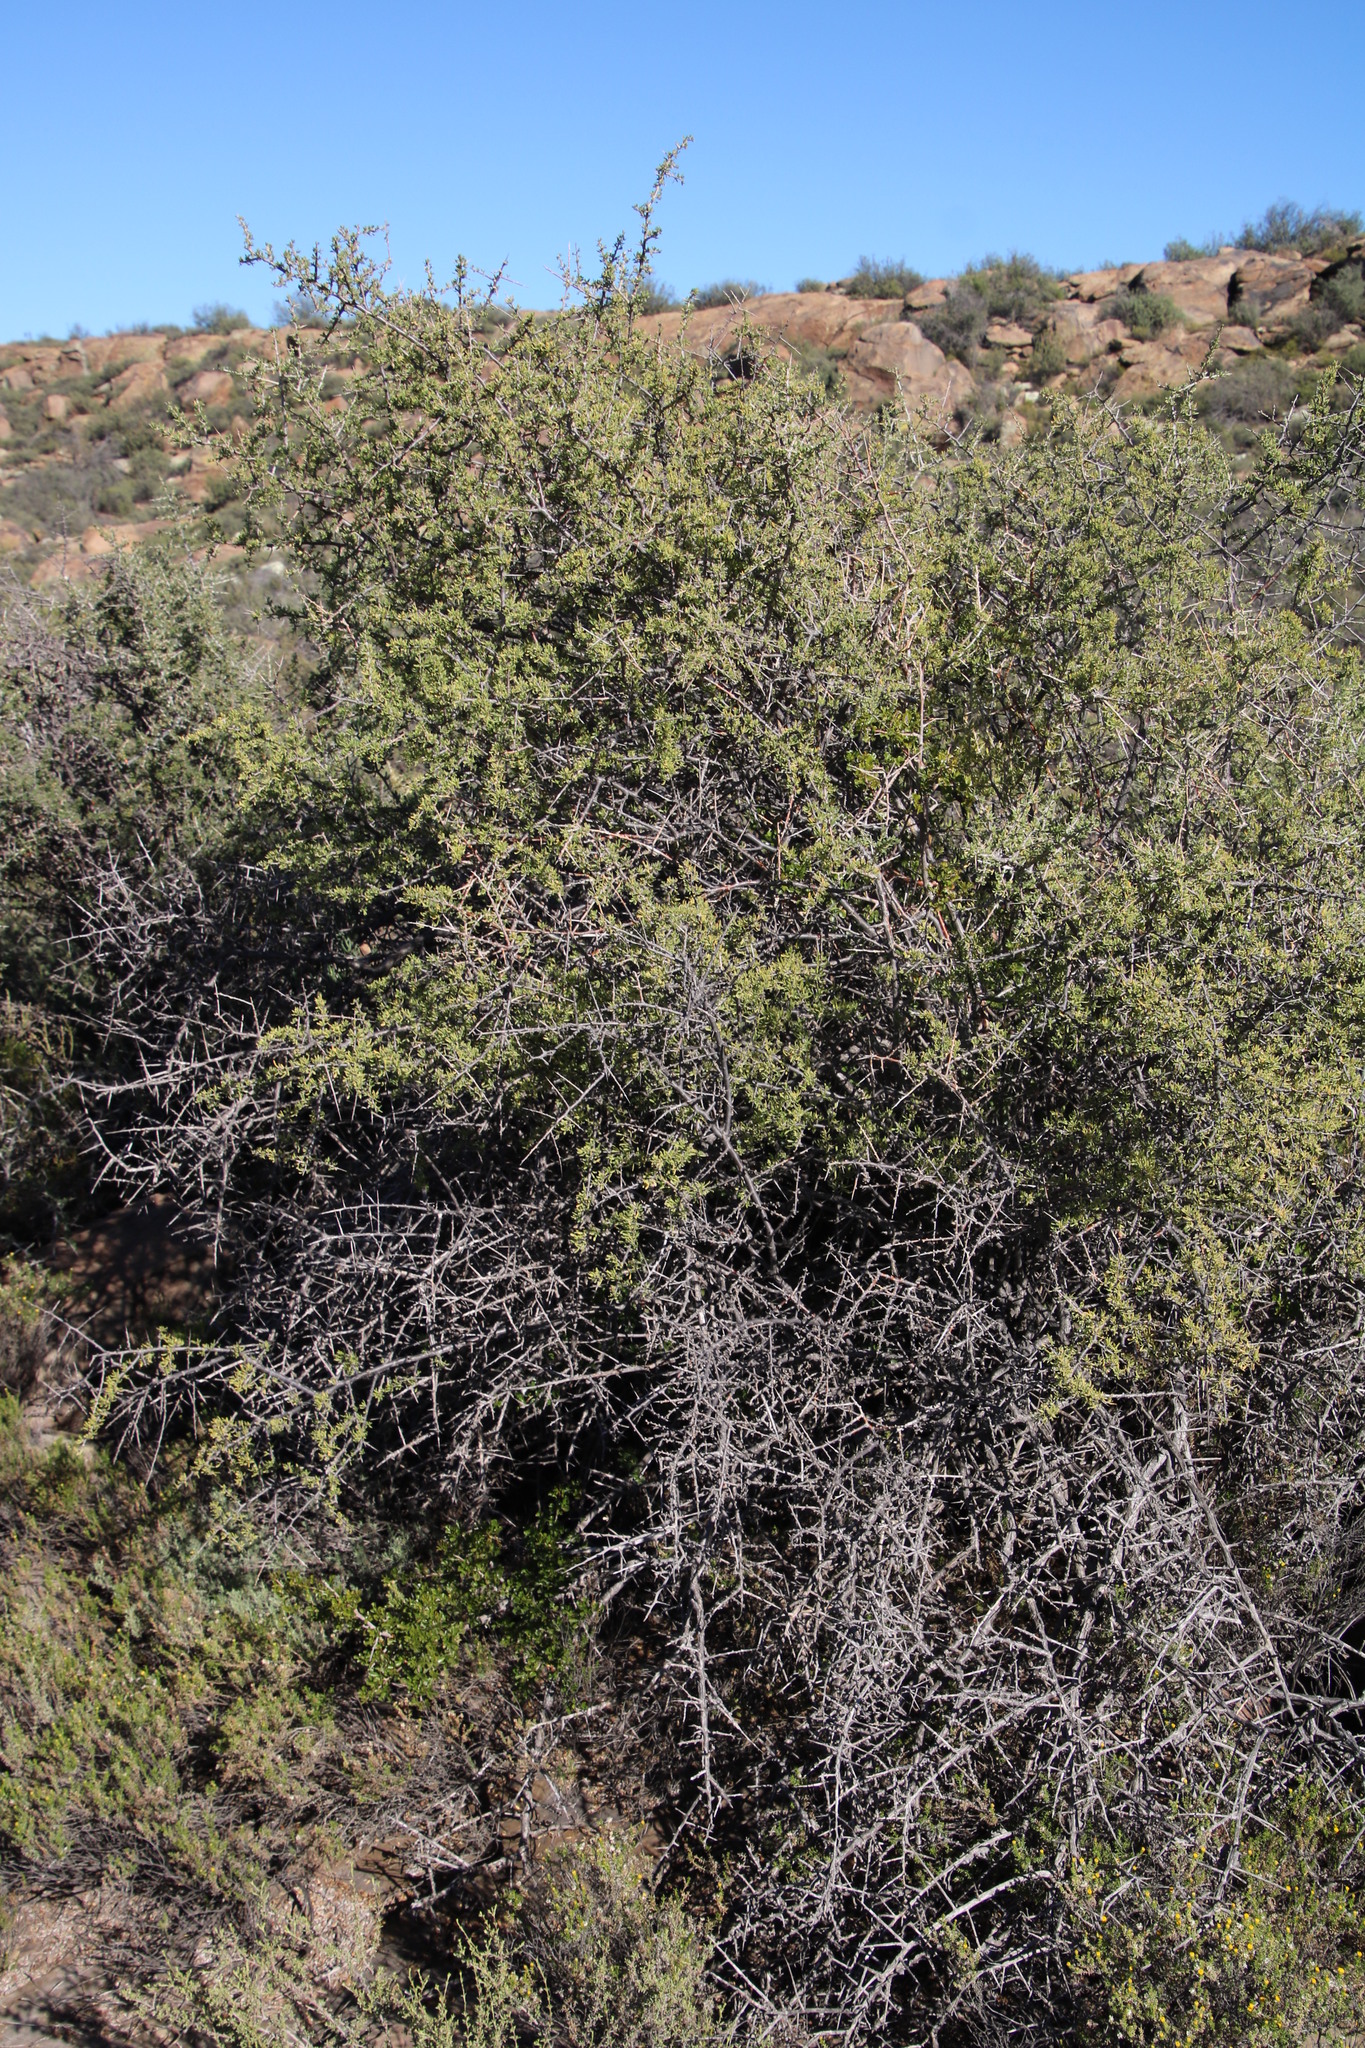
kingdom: Plantae
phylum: Tracheophyta
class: Magnoliopsida
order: Sapindales
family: Anacardiaceae
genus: Searsia
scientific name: Searsia burchellii
